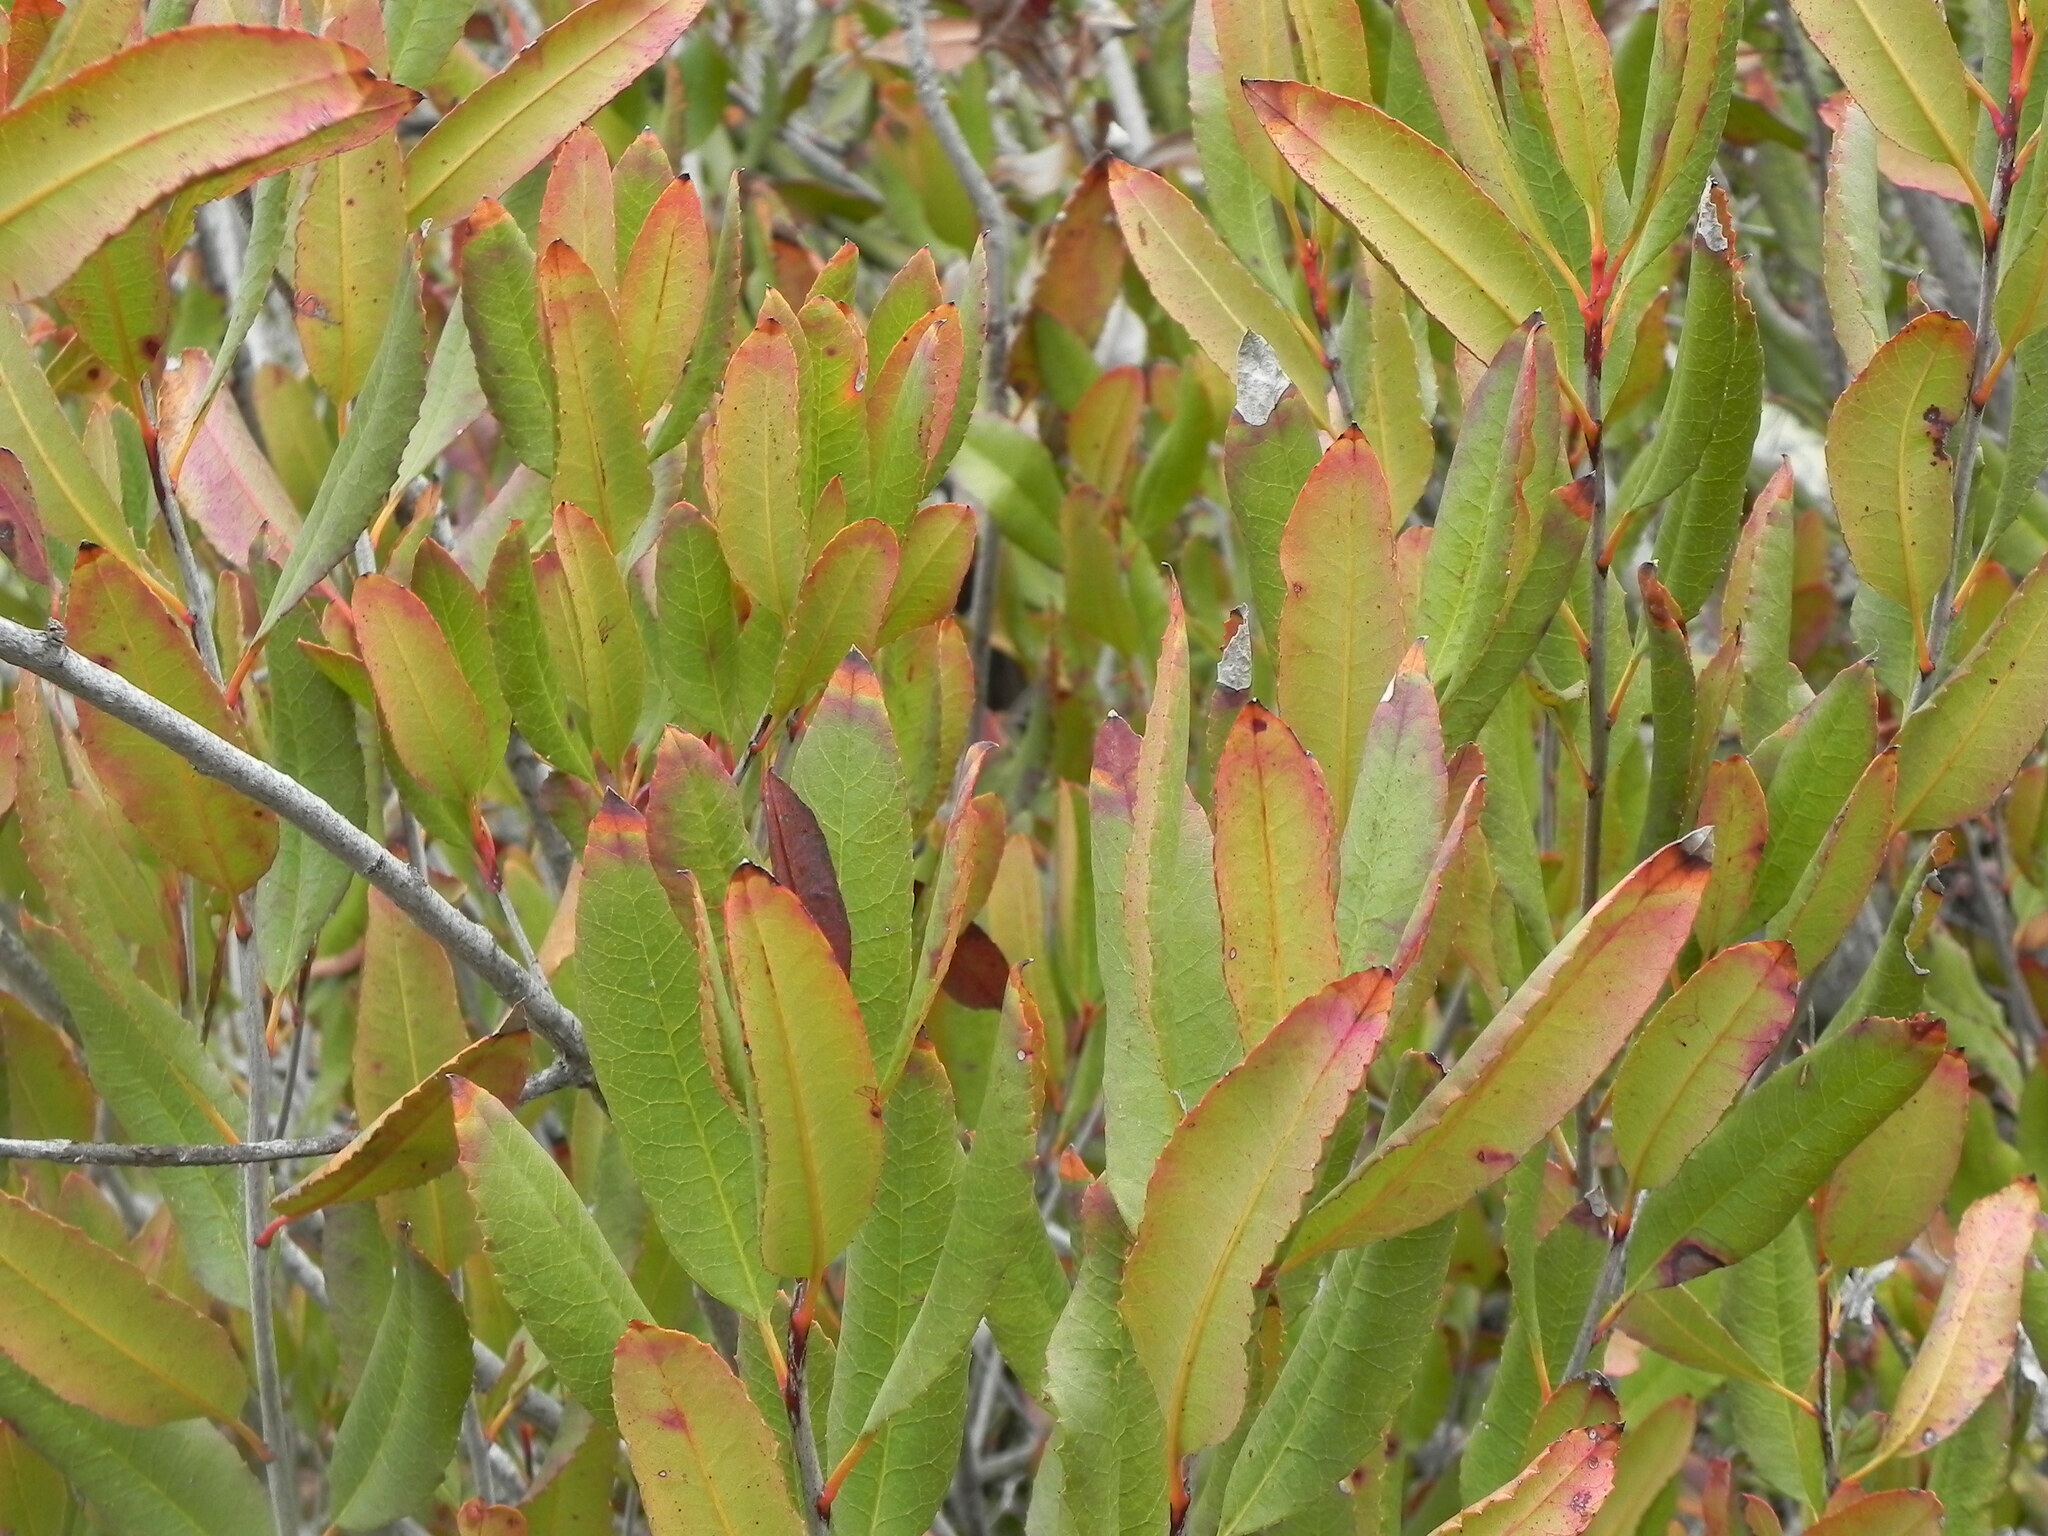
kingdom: Plantae
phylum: Tracheophyta
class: Magnoliopsida
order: Rosales
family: Rosaceae
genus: Heteromeles
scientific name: Heteromeles arbutifolia
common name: California-holly
